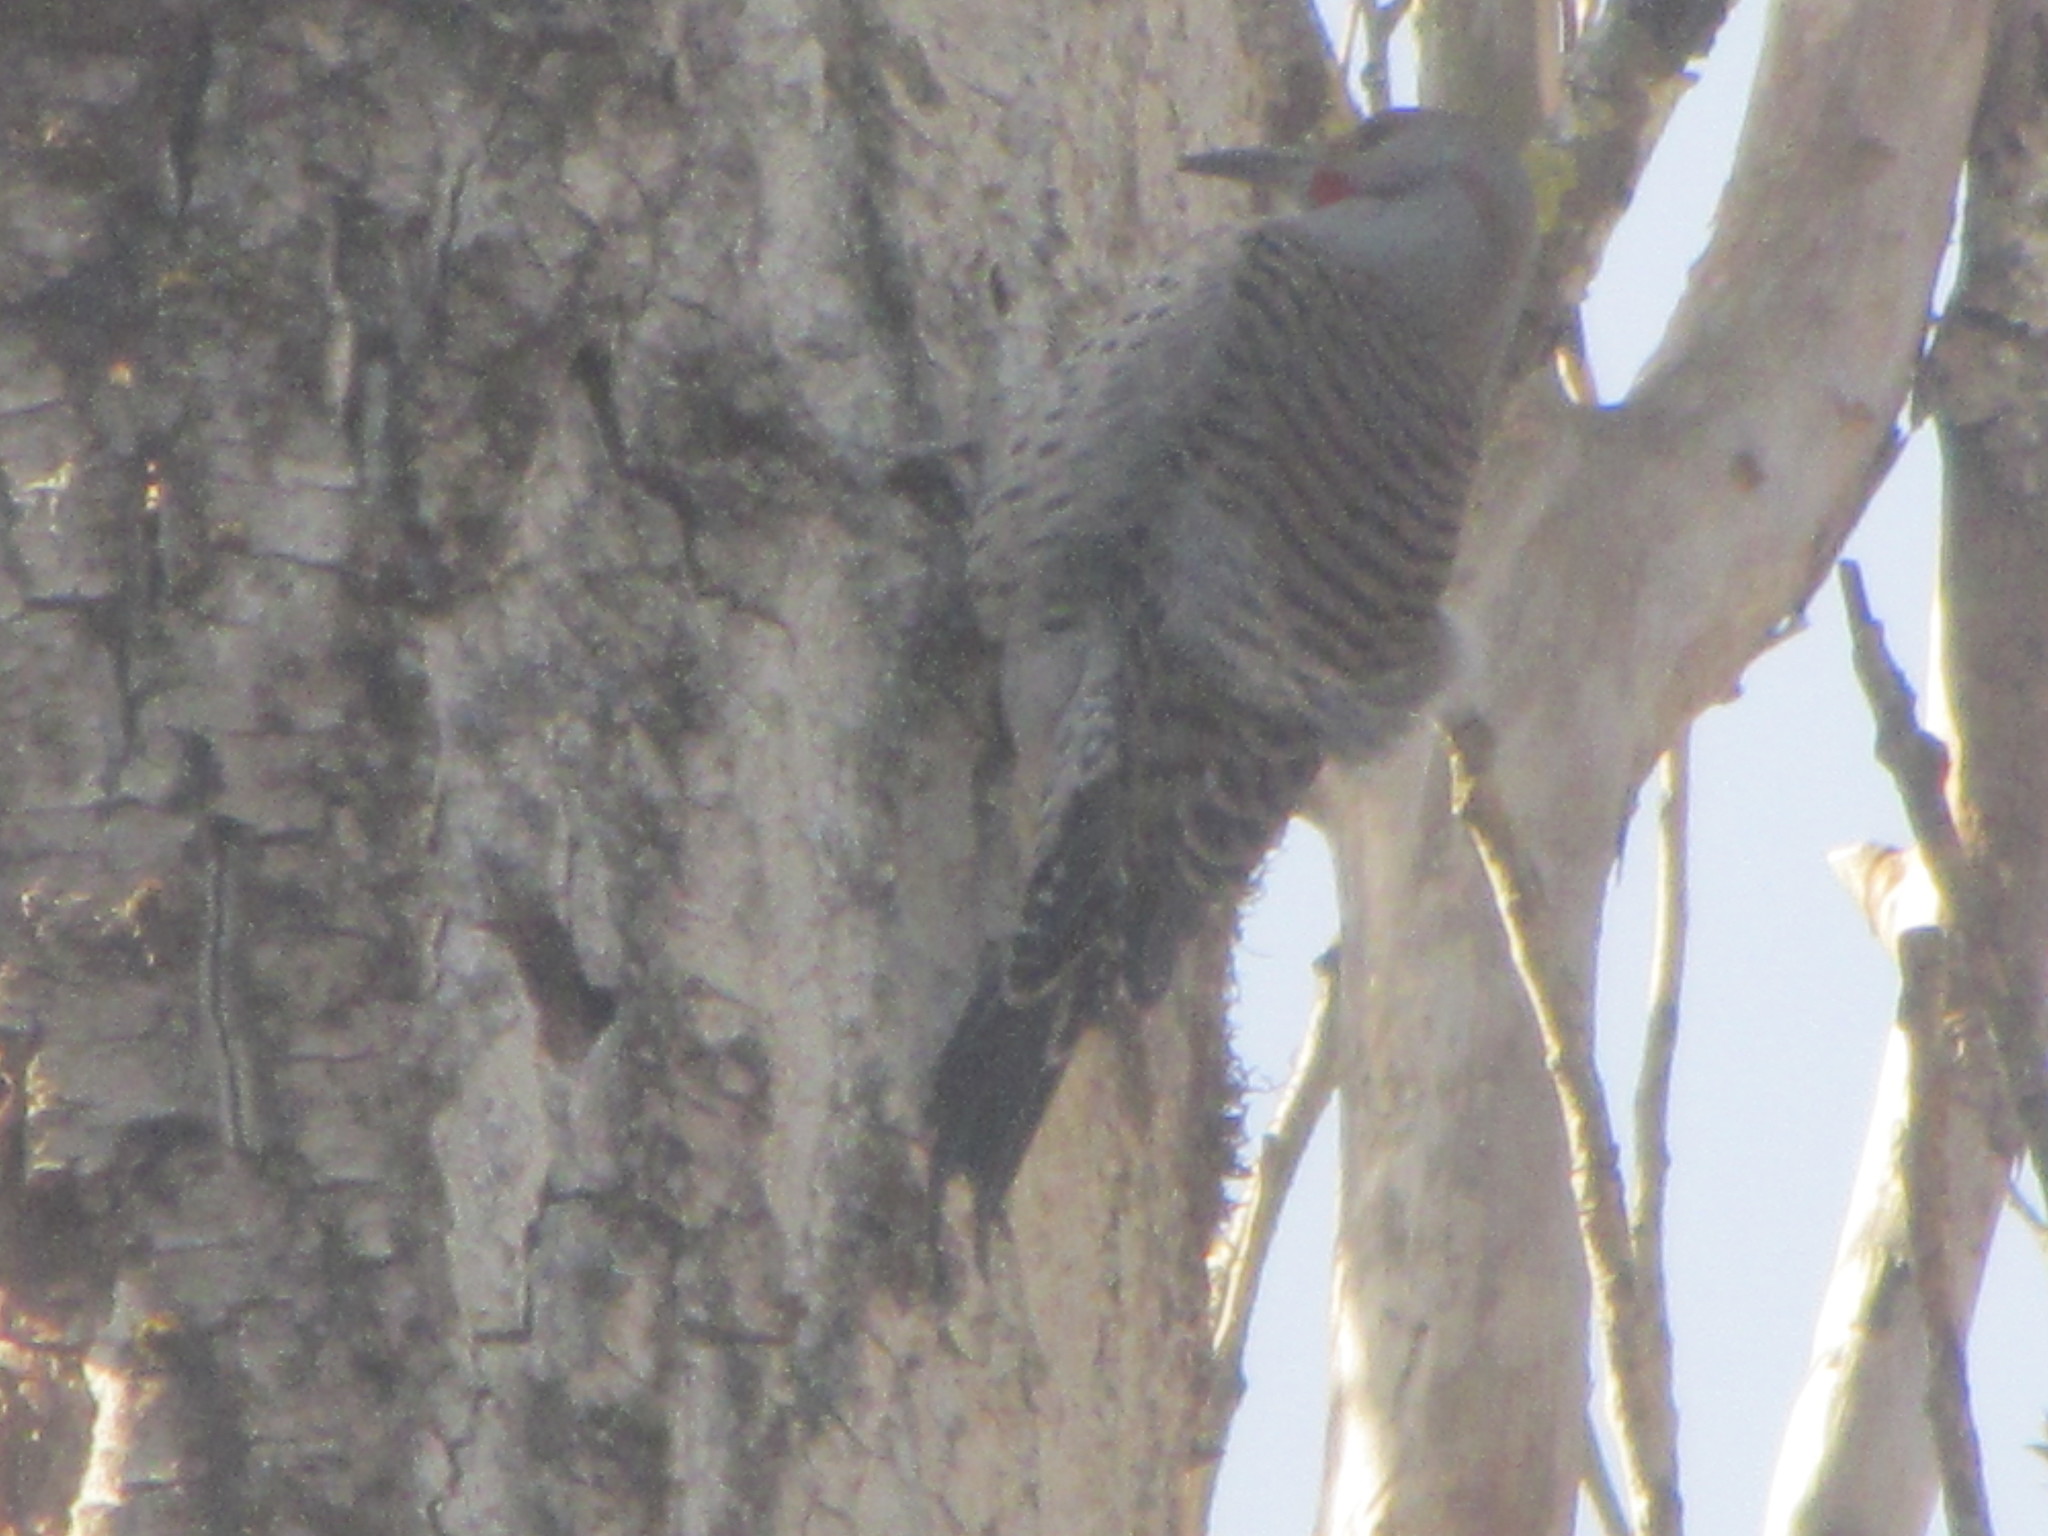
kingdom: Animalia
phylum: Chordata
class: Aves
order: Piciformes
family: Picidae
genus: Colaptes
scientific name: Colaptes auratus
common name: Northern flicker
